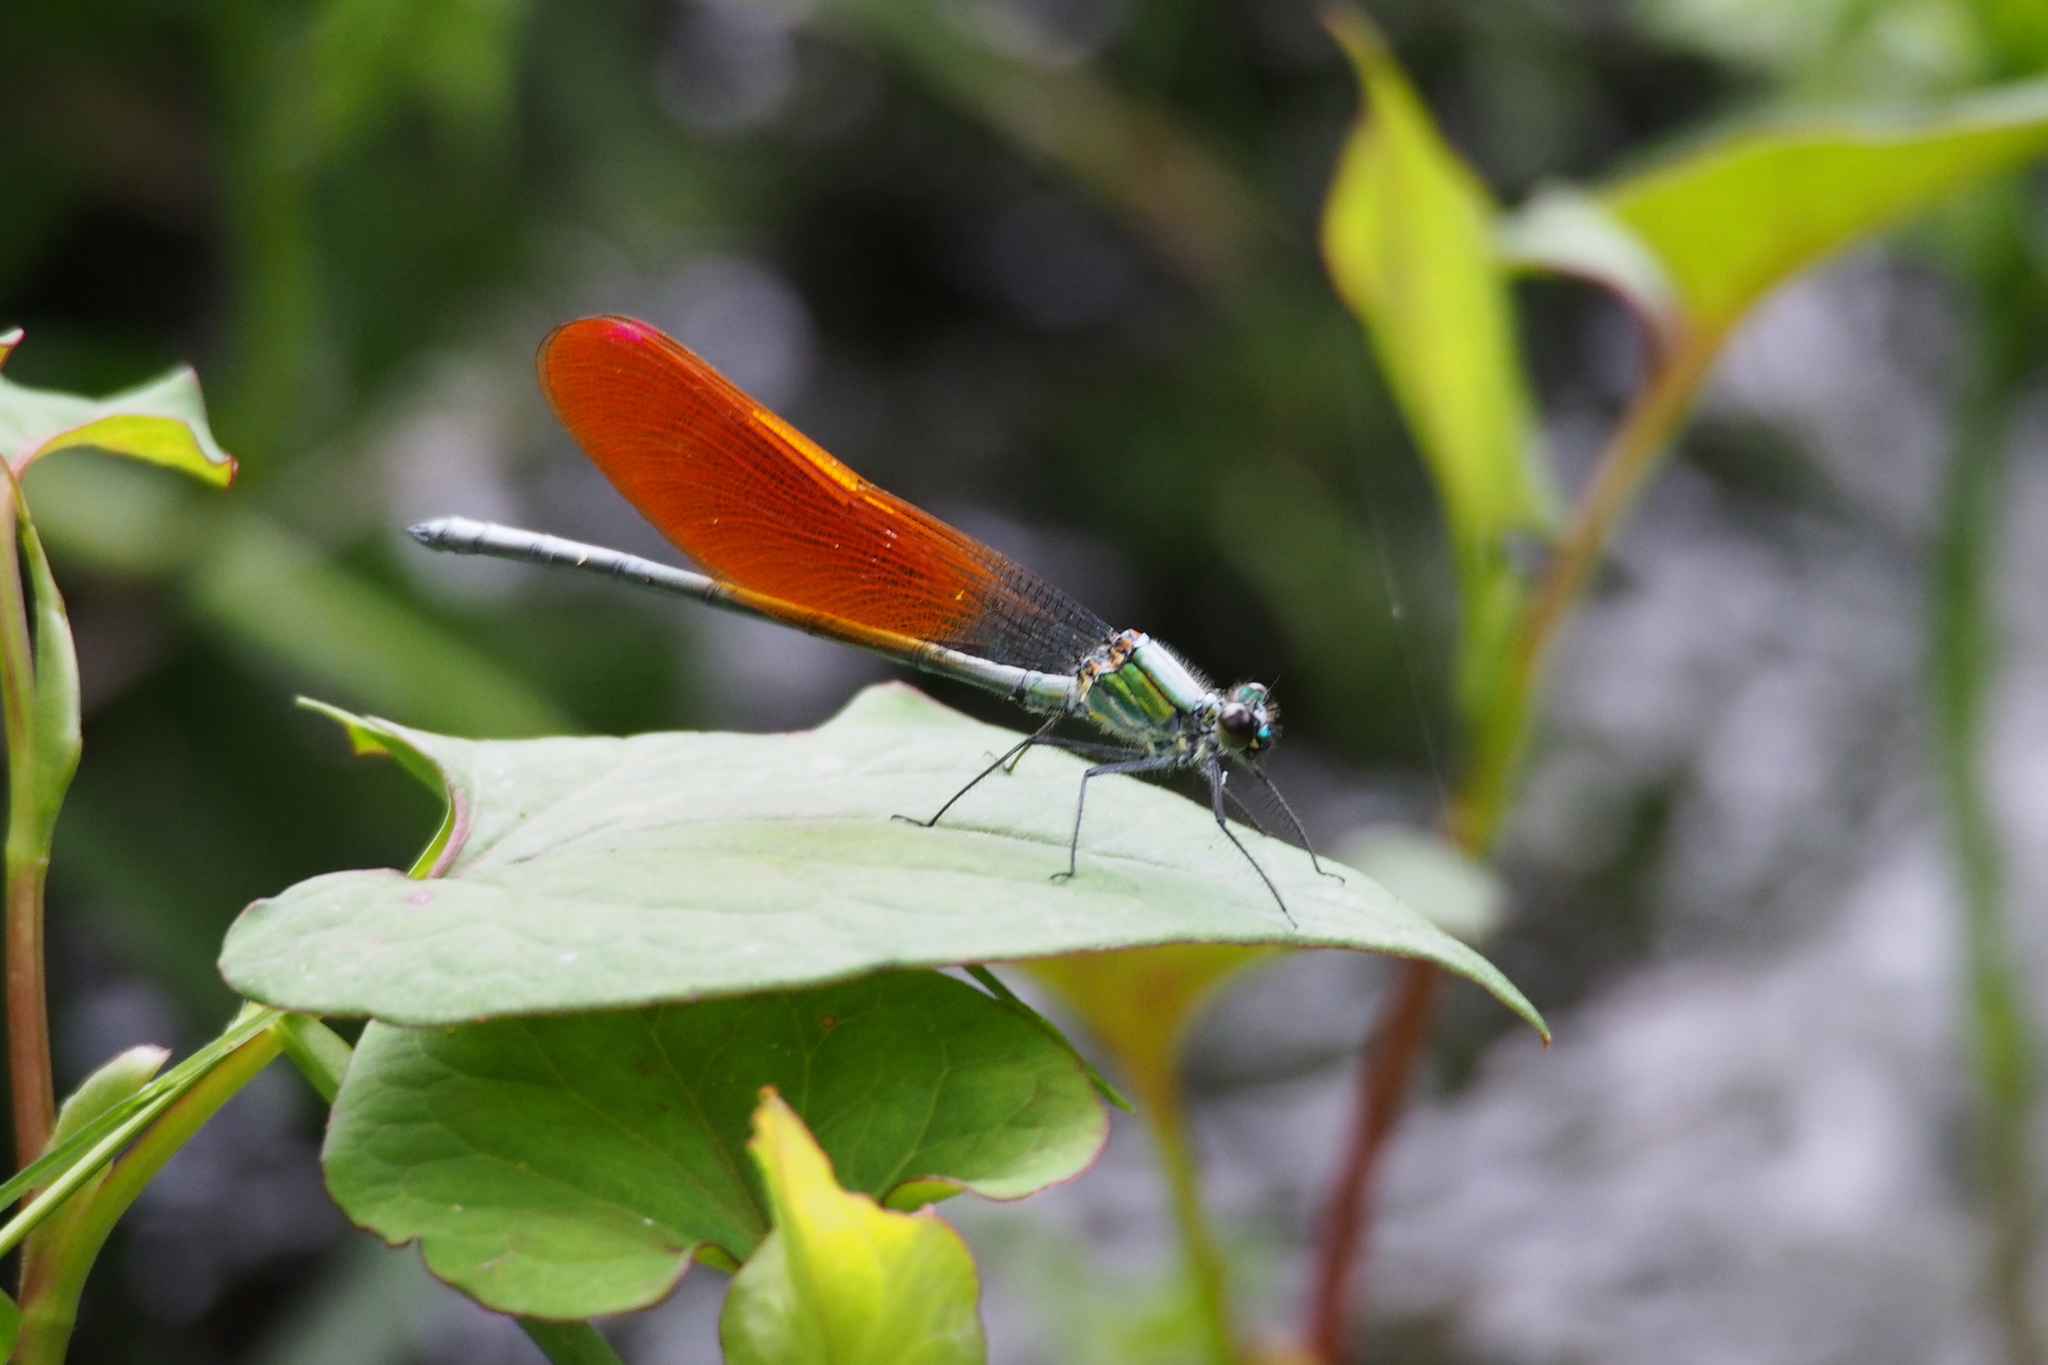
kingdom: Animalia
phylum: Arthropoda
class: Insecta
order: Odonata
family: Calopterygidae
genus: Mnais
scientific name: Mnais pruinosa
